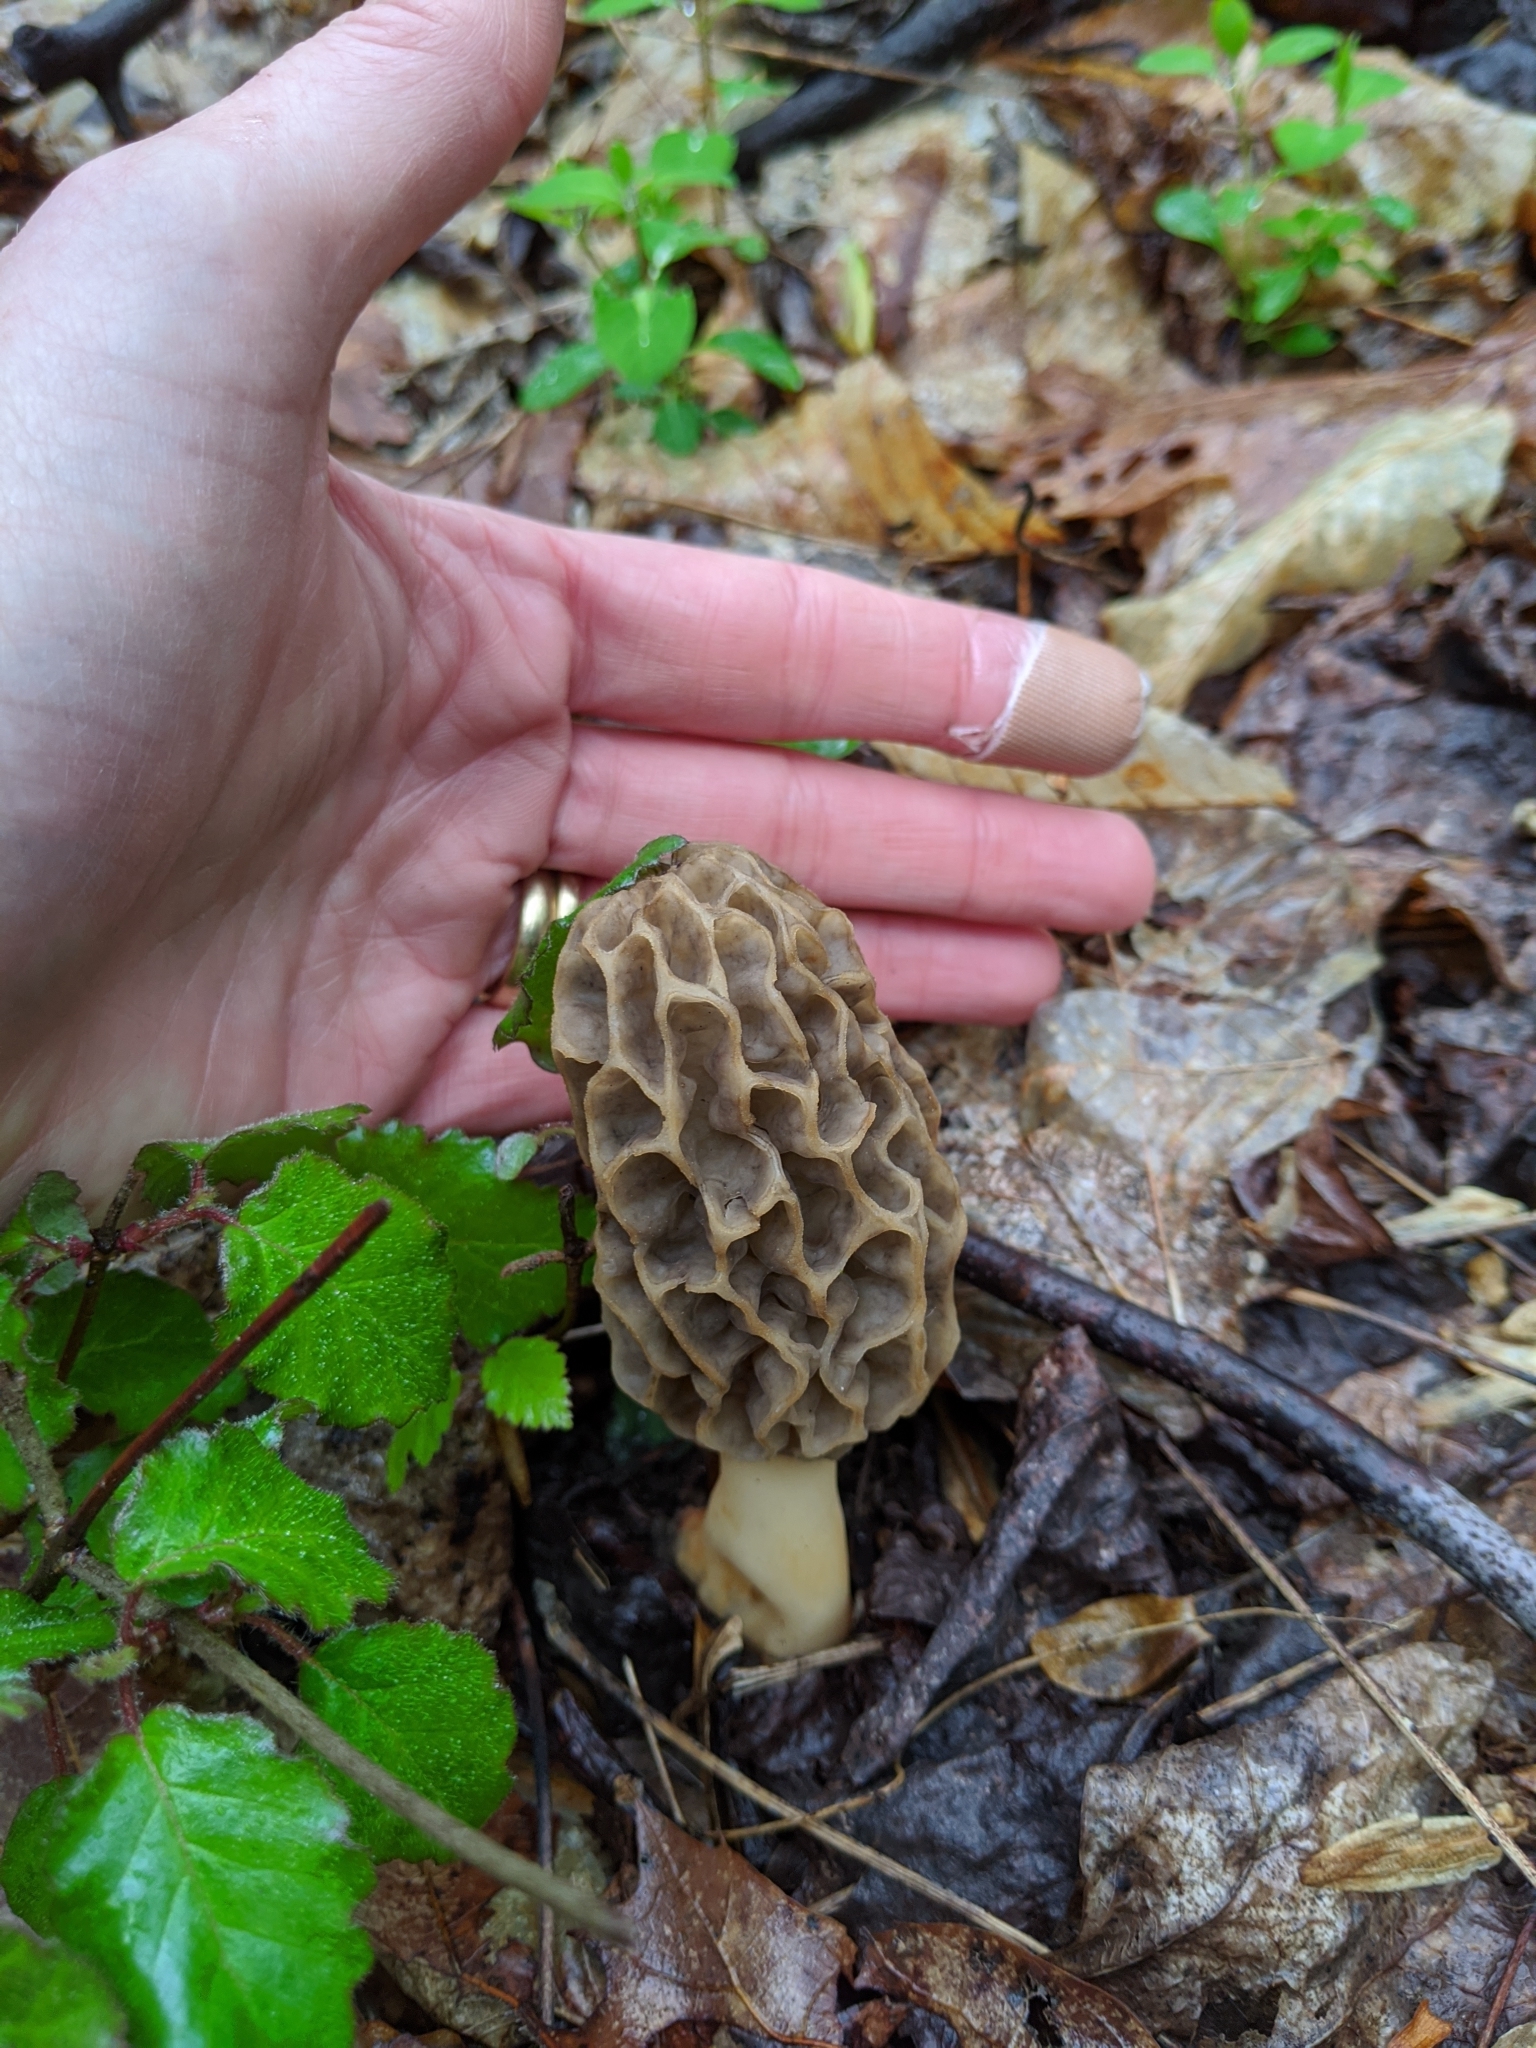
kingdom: Fungi
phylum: Ascomycota
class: Pezizomycetes
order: Pezizales
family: Morchellaceae
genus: Morchella
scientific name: Morchella americana
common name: White morel
